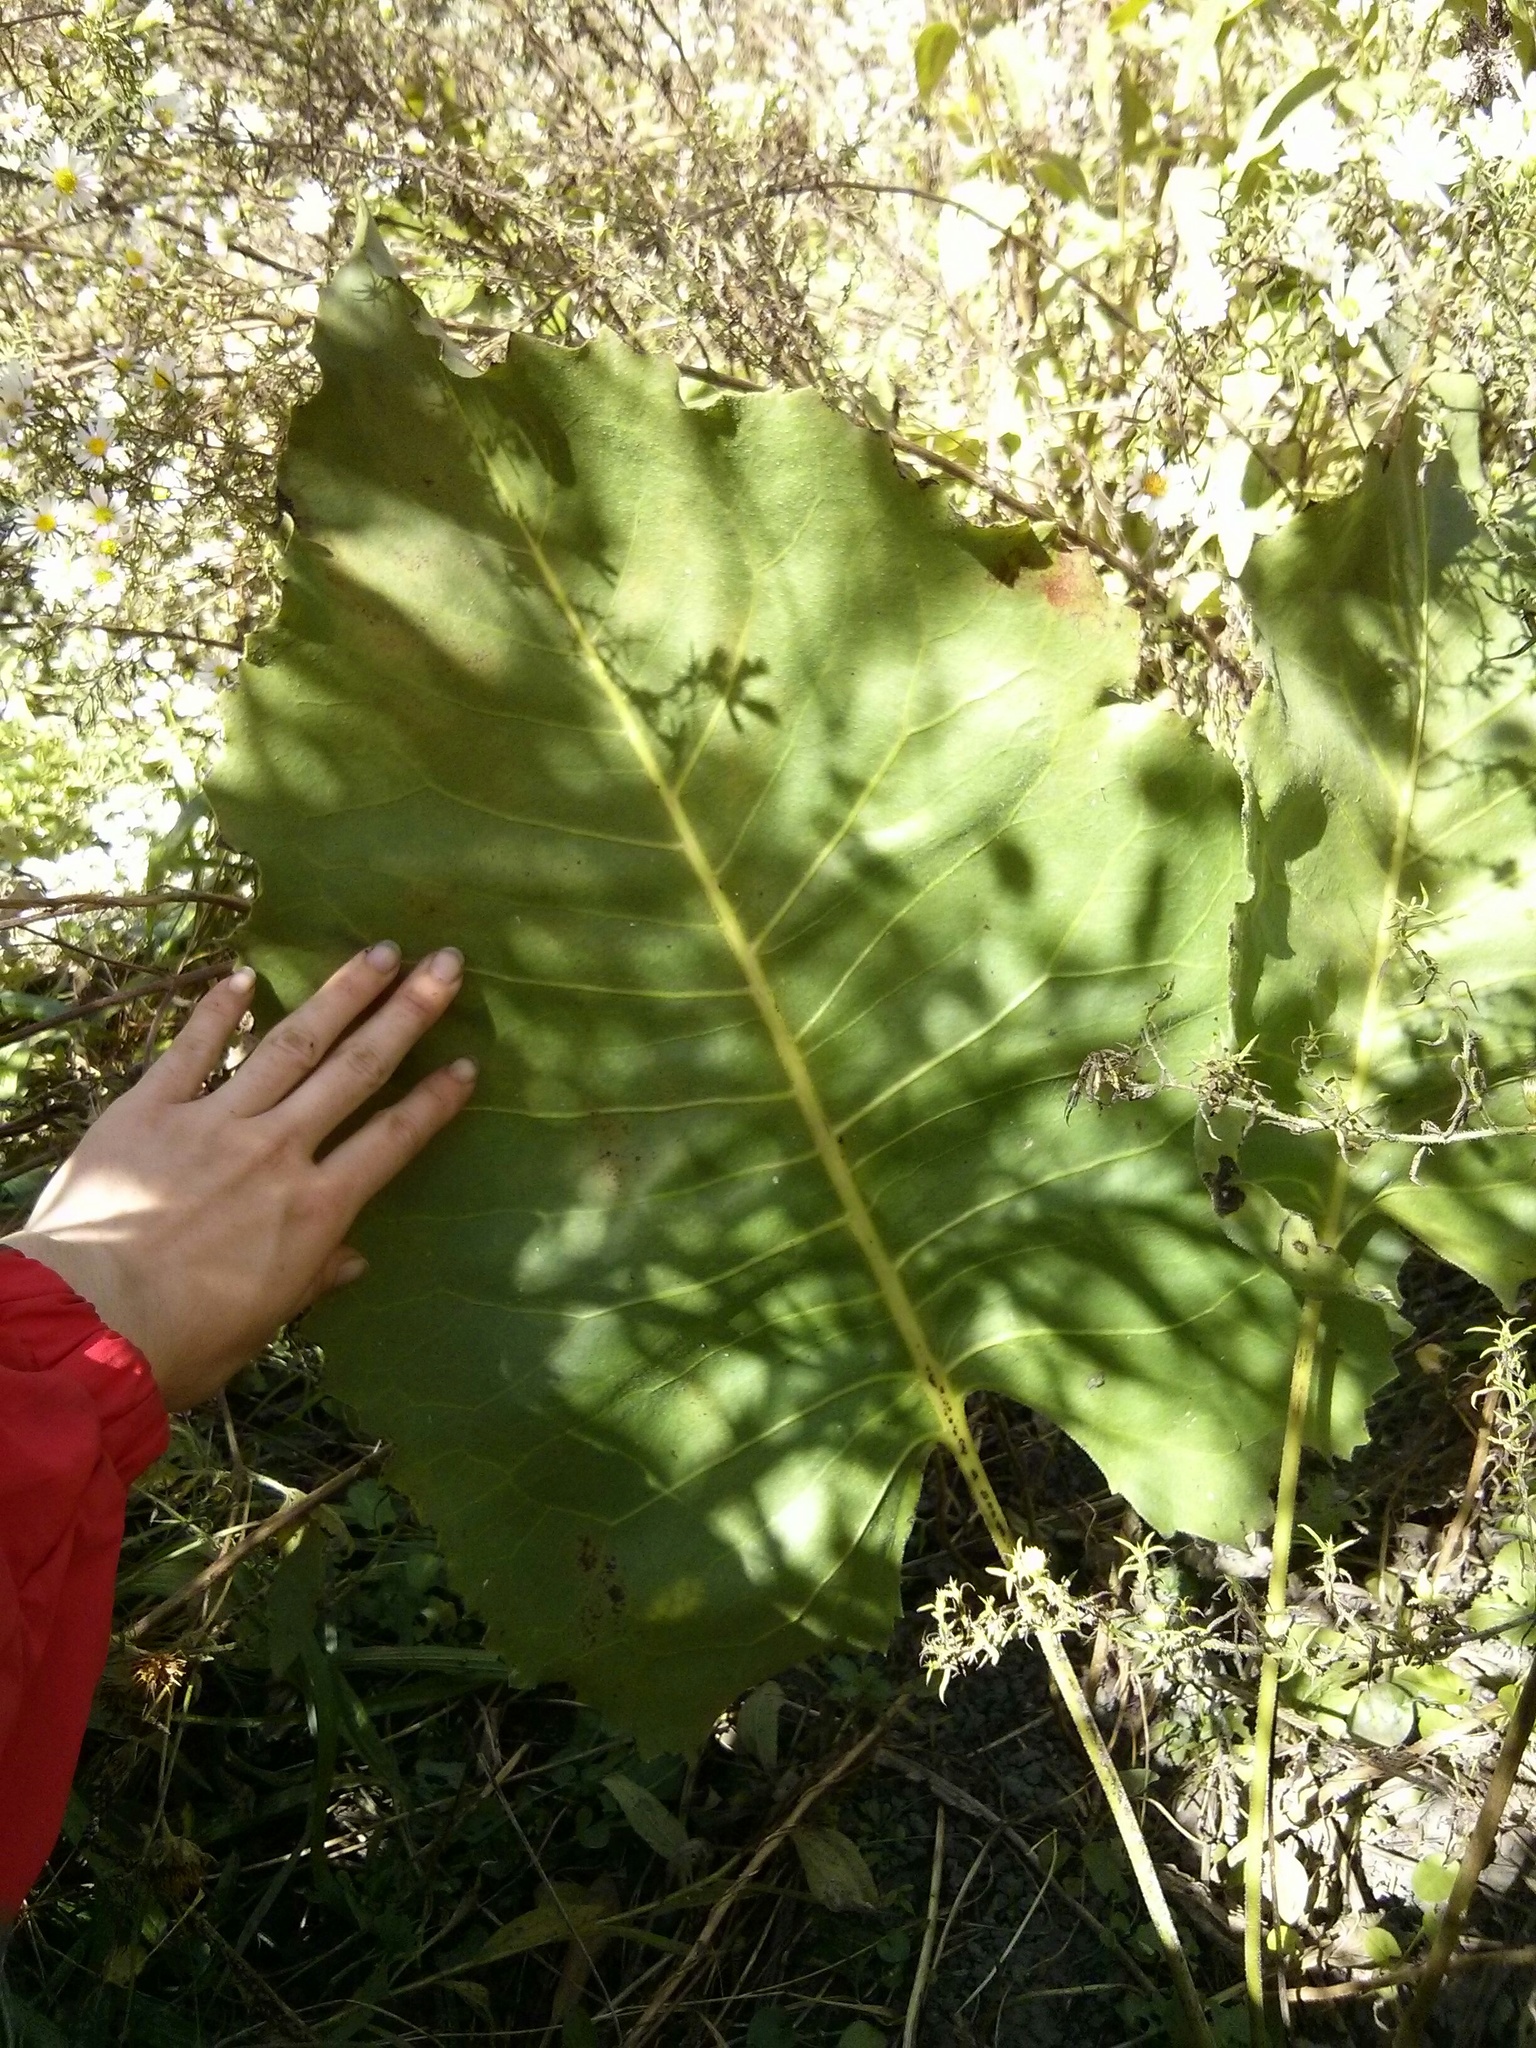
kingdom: Plantae
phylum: Tracheophyta
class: Magnoliopsida
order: Asterales
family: Asteraceae
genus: Silphium
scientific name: Silphium terebinthinaceum
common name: Basal-leaf rosinweed
